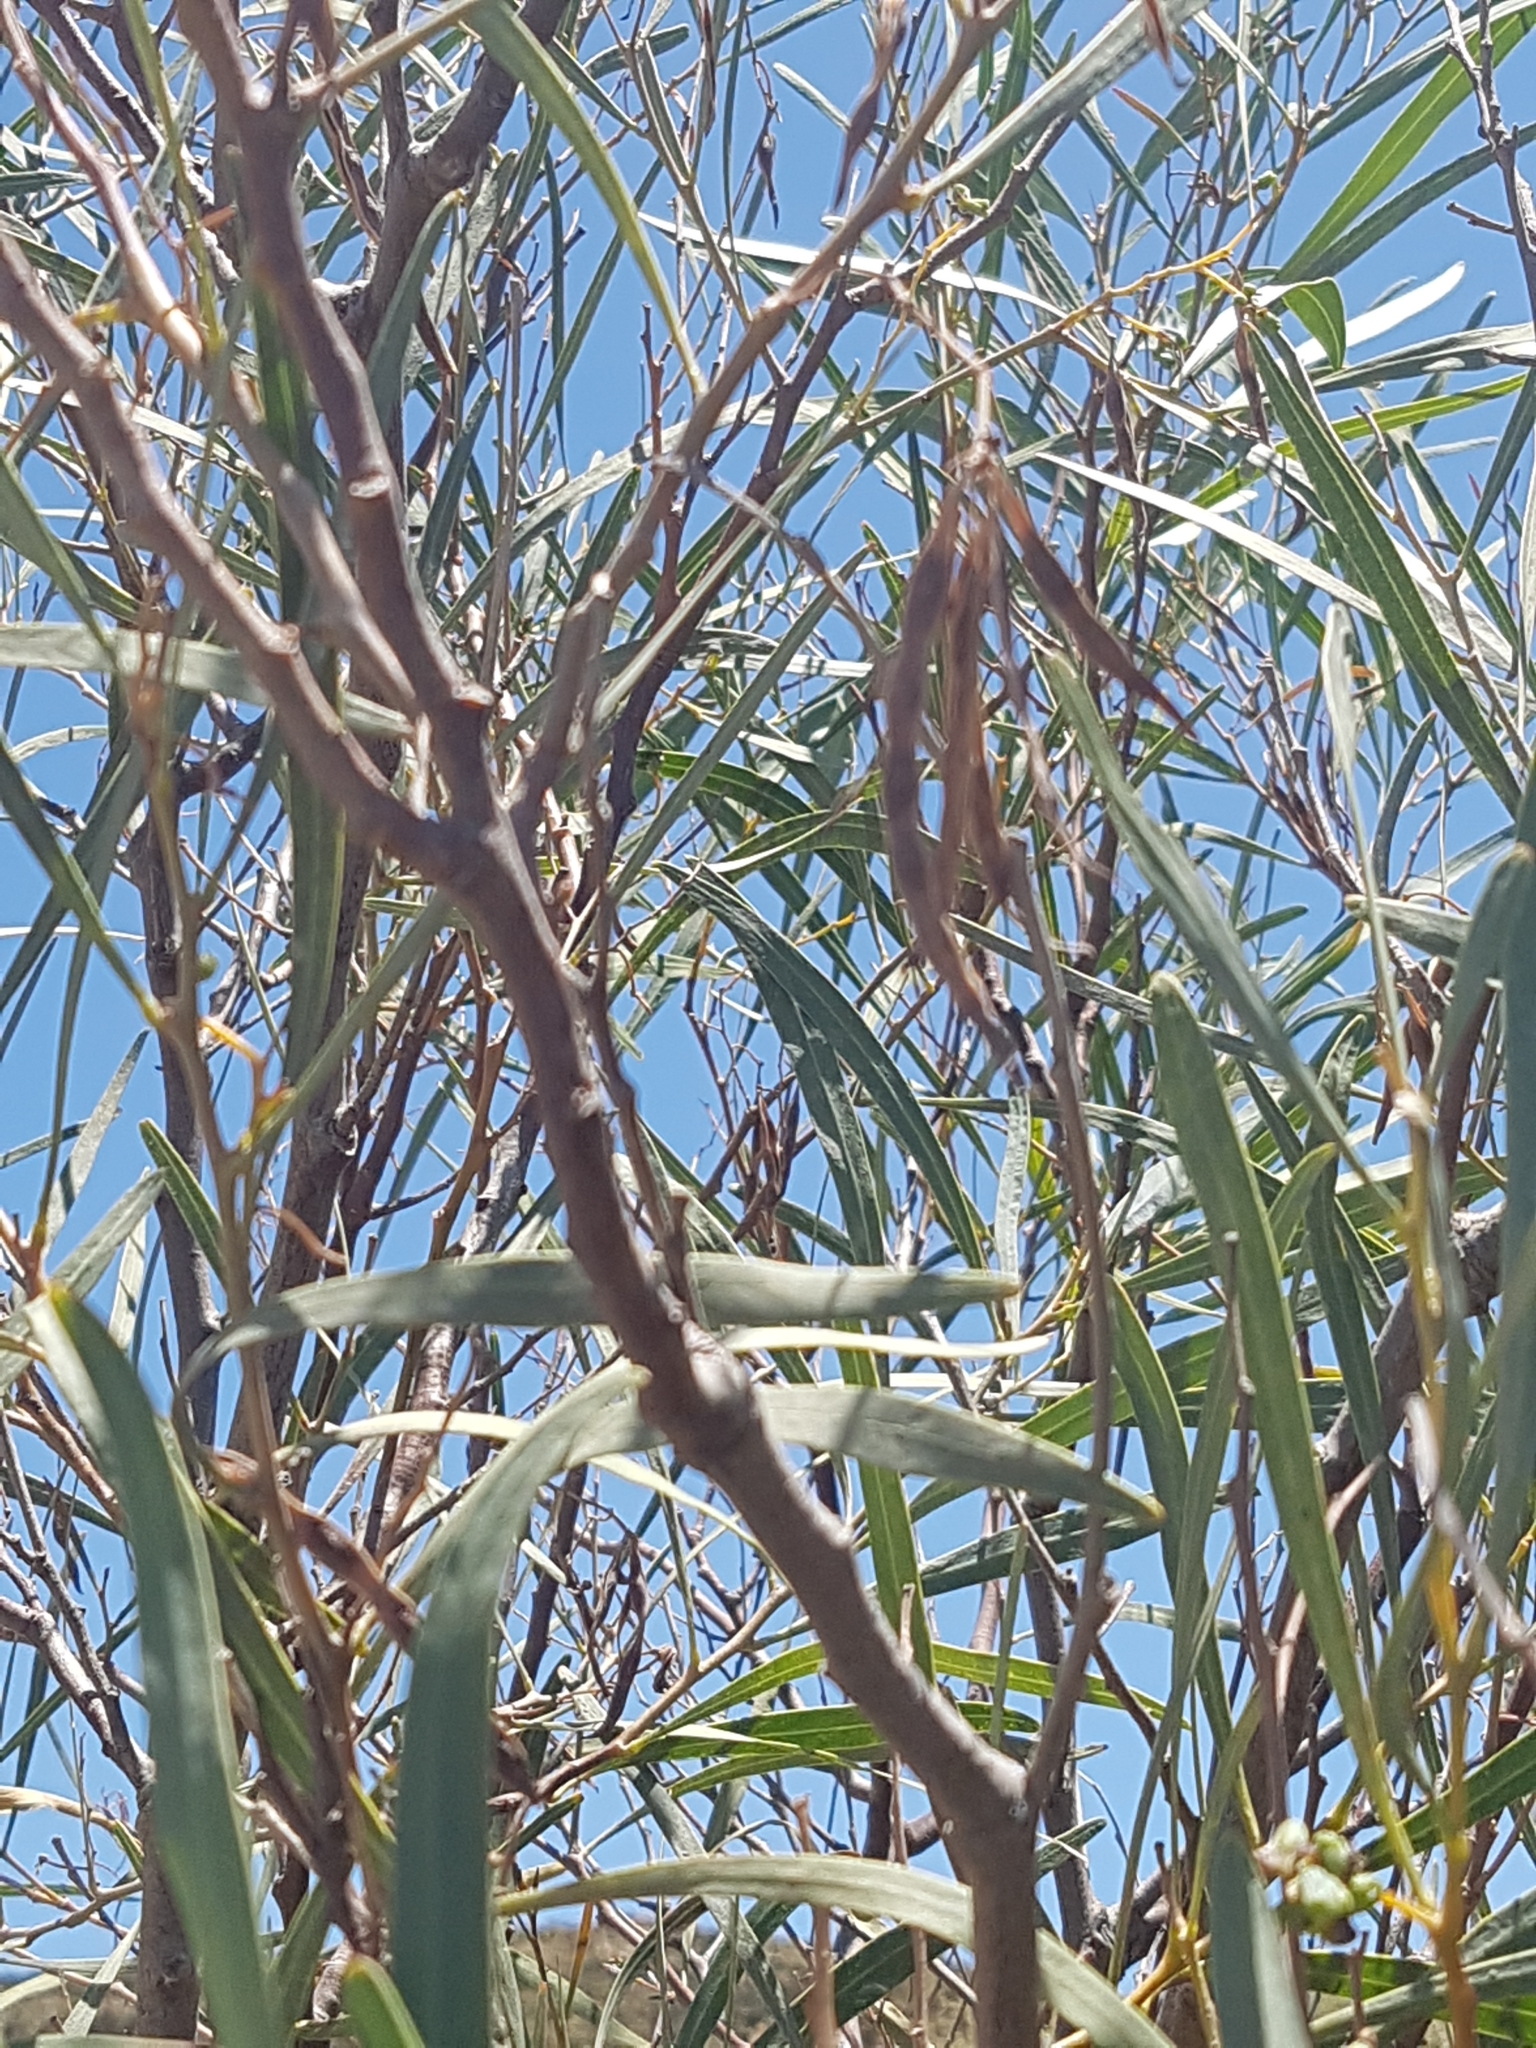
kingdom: Plantae
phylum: Tracheophyta
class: Magnoliopsida
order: Fabales
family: Fabaceae
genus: Acacia
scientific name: Acacia saligna
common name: Orange wattle
